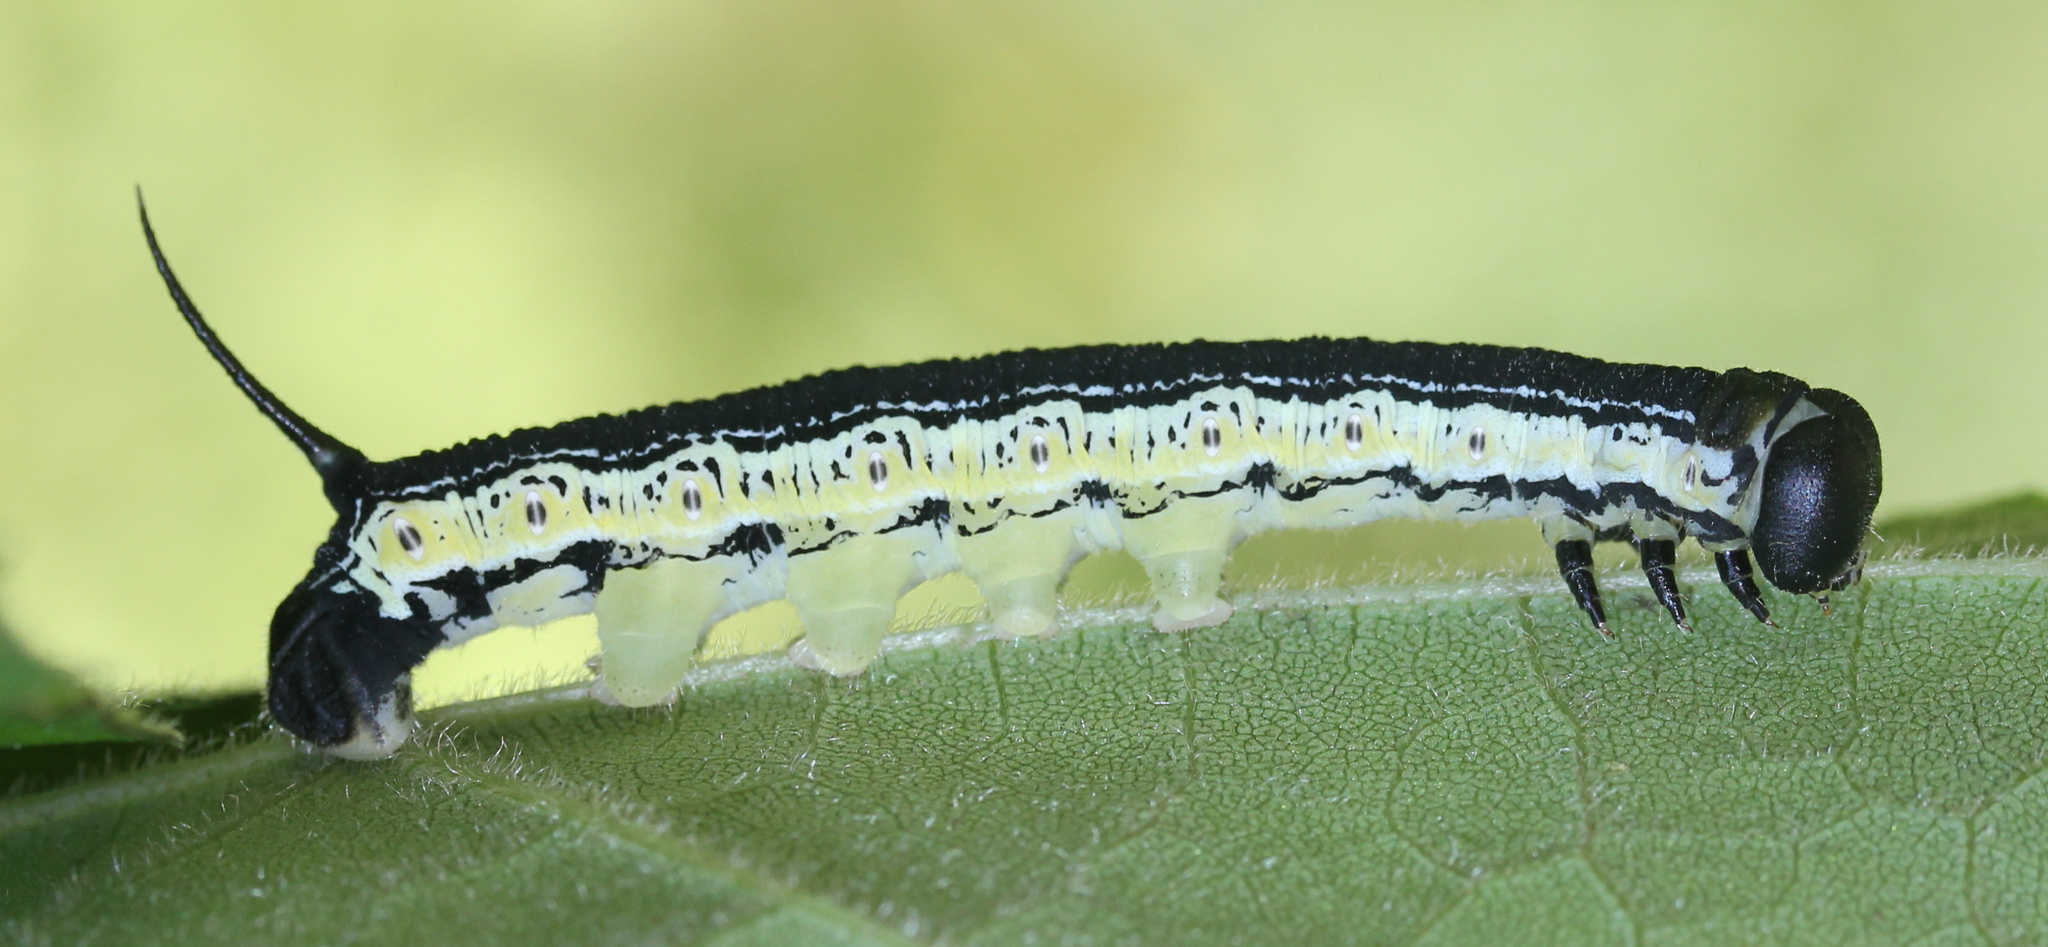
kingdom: Animalia
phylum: Arthropoda
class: Insecta
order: Lepidoptera
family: Sphingidae
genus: Ceratomia
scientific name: Ceratomia catalpae
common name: Catalpa hornworm
